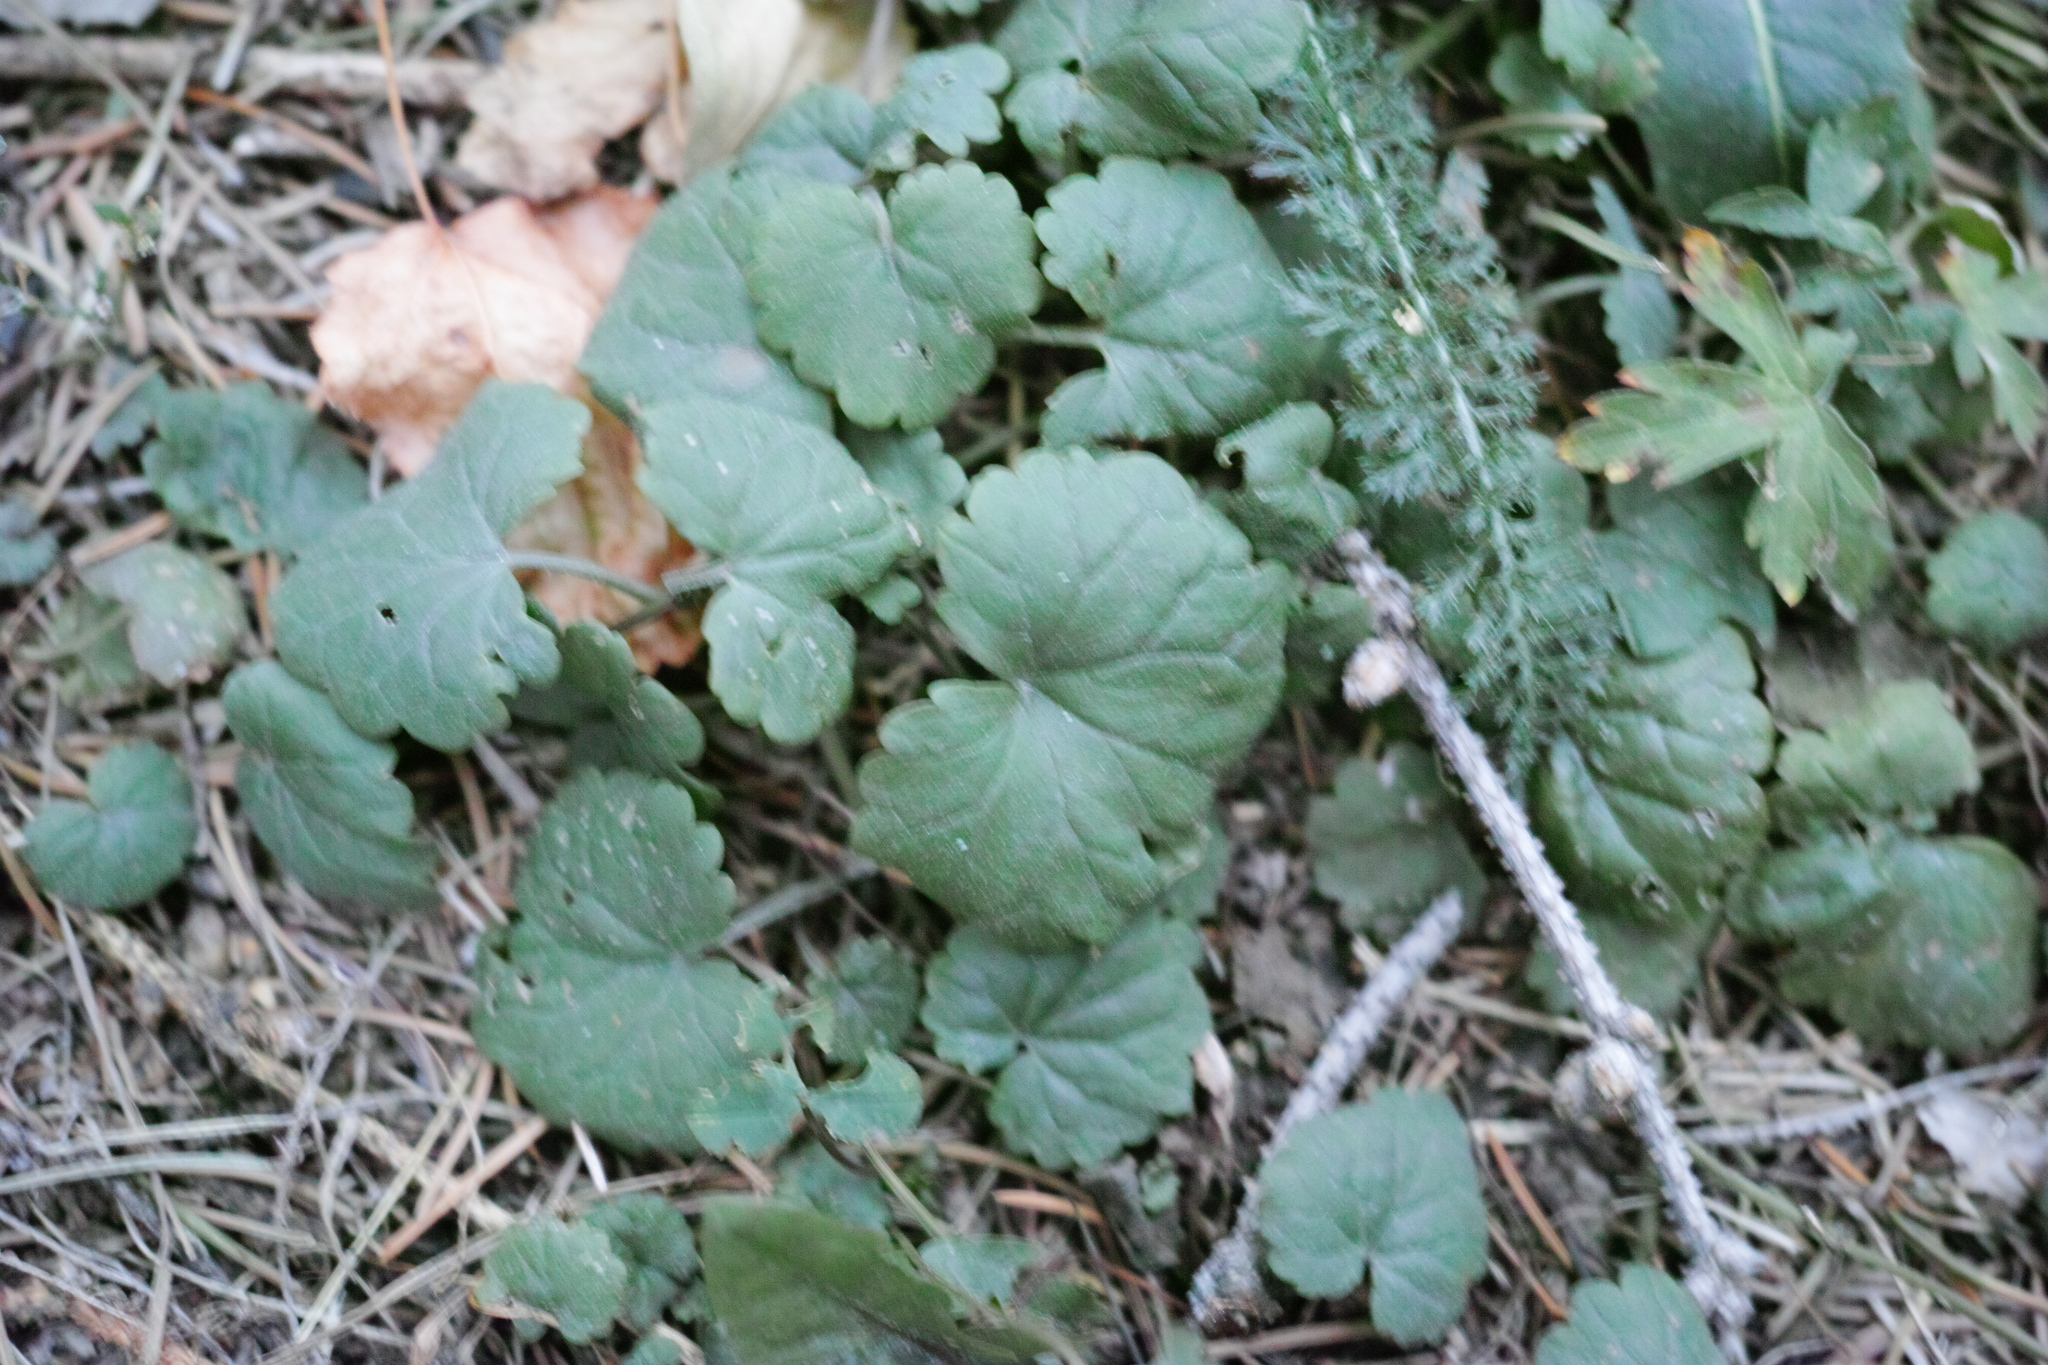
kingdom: Plantae
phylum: Tracheophyta
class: Magnoliopsida
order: Lamiales
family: Lamiaceae
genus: Glechoma
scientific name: Glechoma hederacea
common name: Ground ivy
